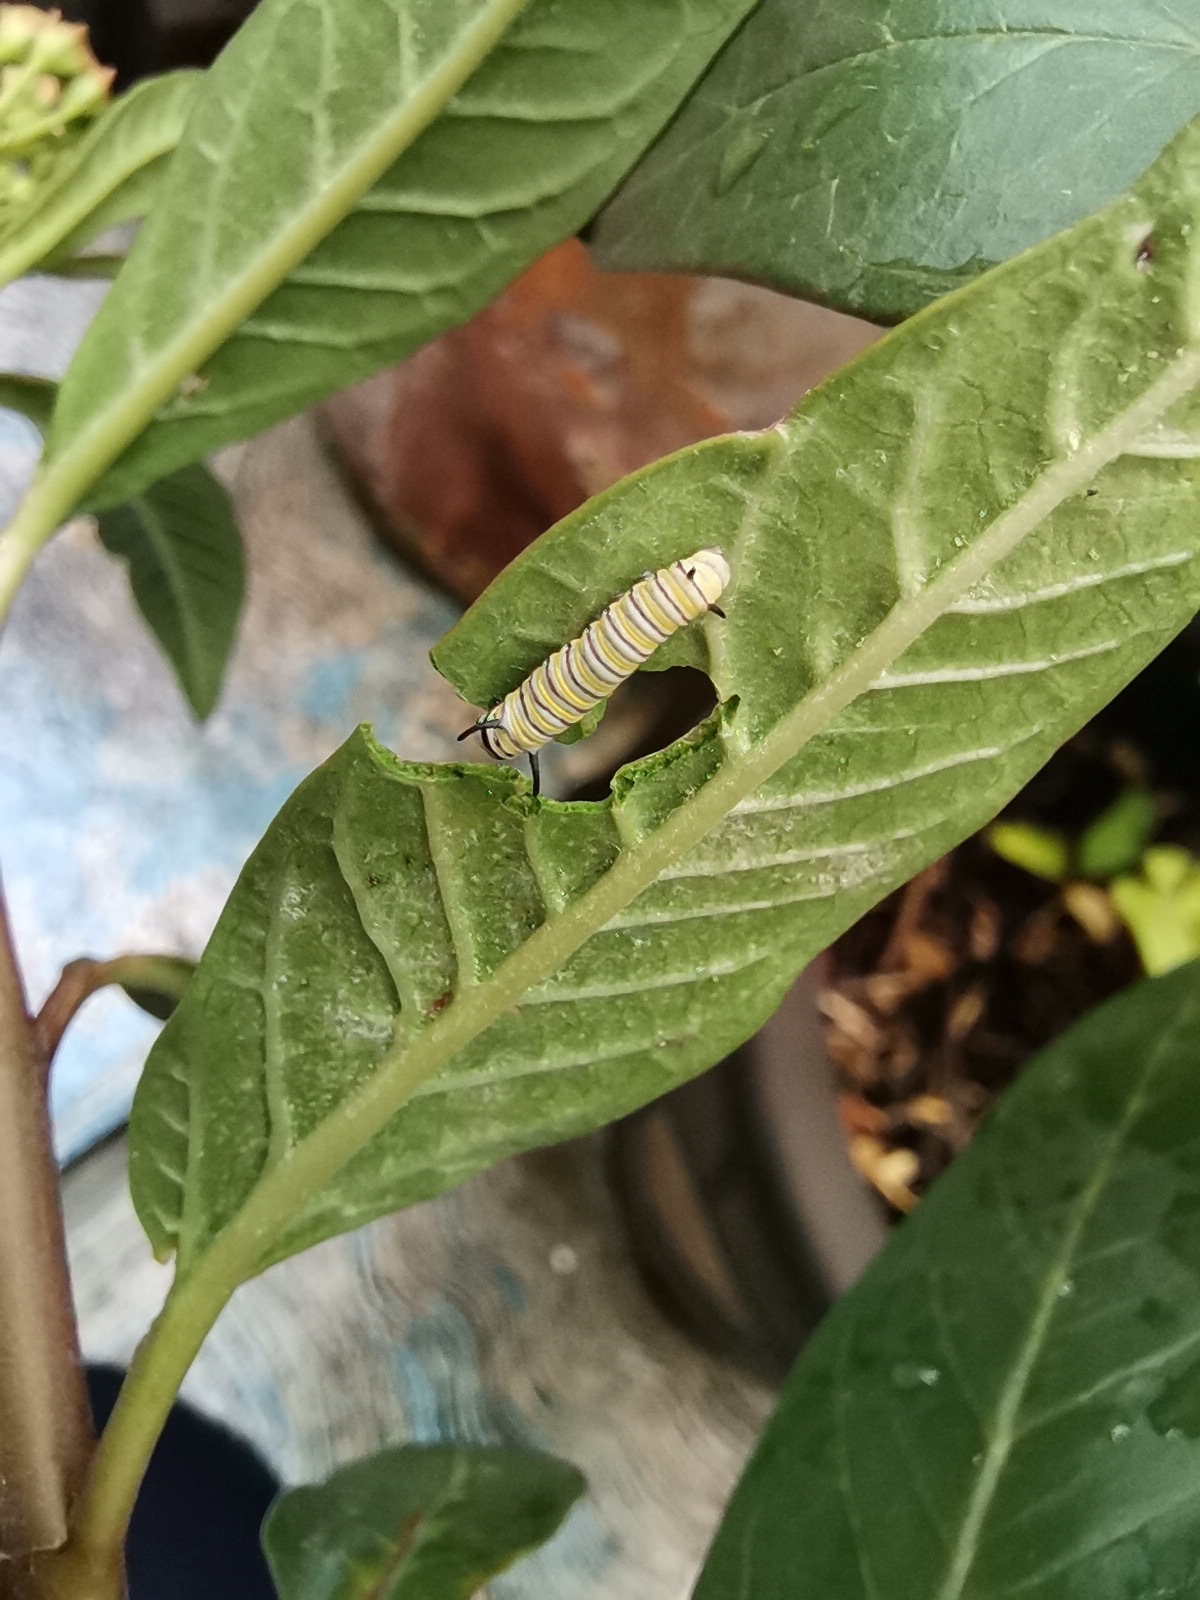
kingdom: Animalia
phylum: Arthropoda
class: Insecta
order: Lepidoptera
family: Nymphalidae
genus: Danaus
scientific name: Danaus plexippus
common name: Monarch
